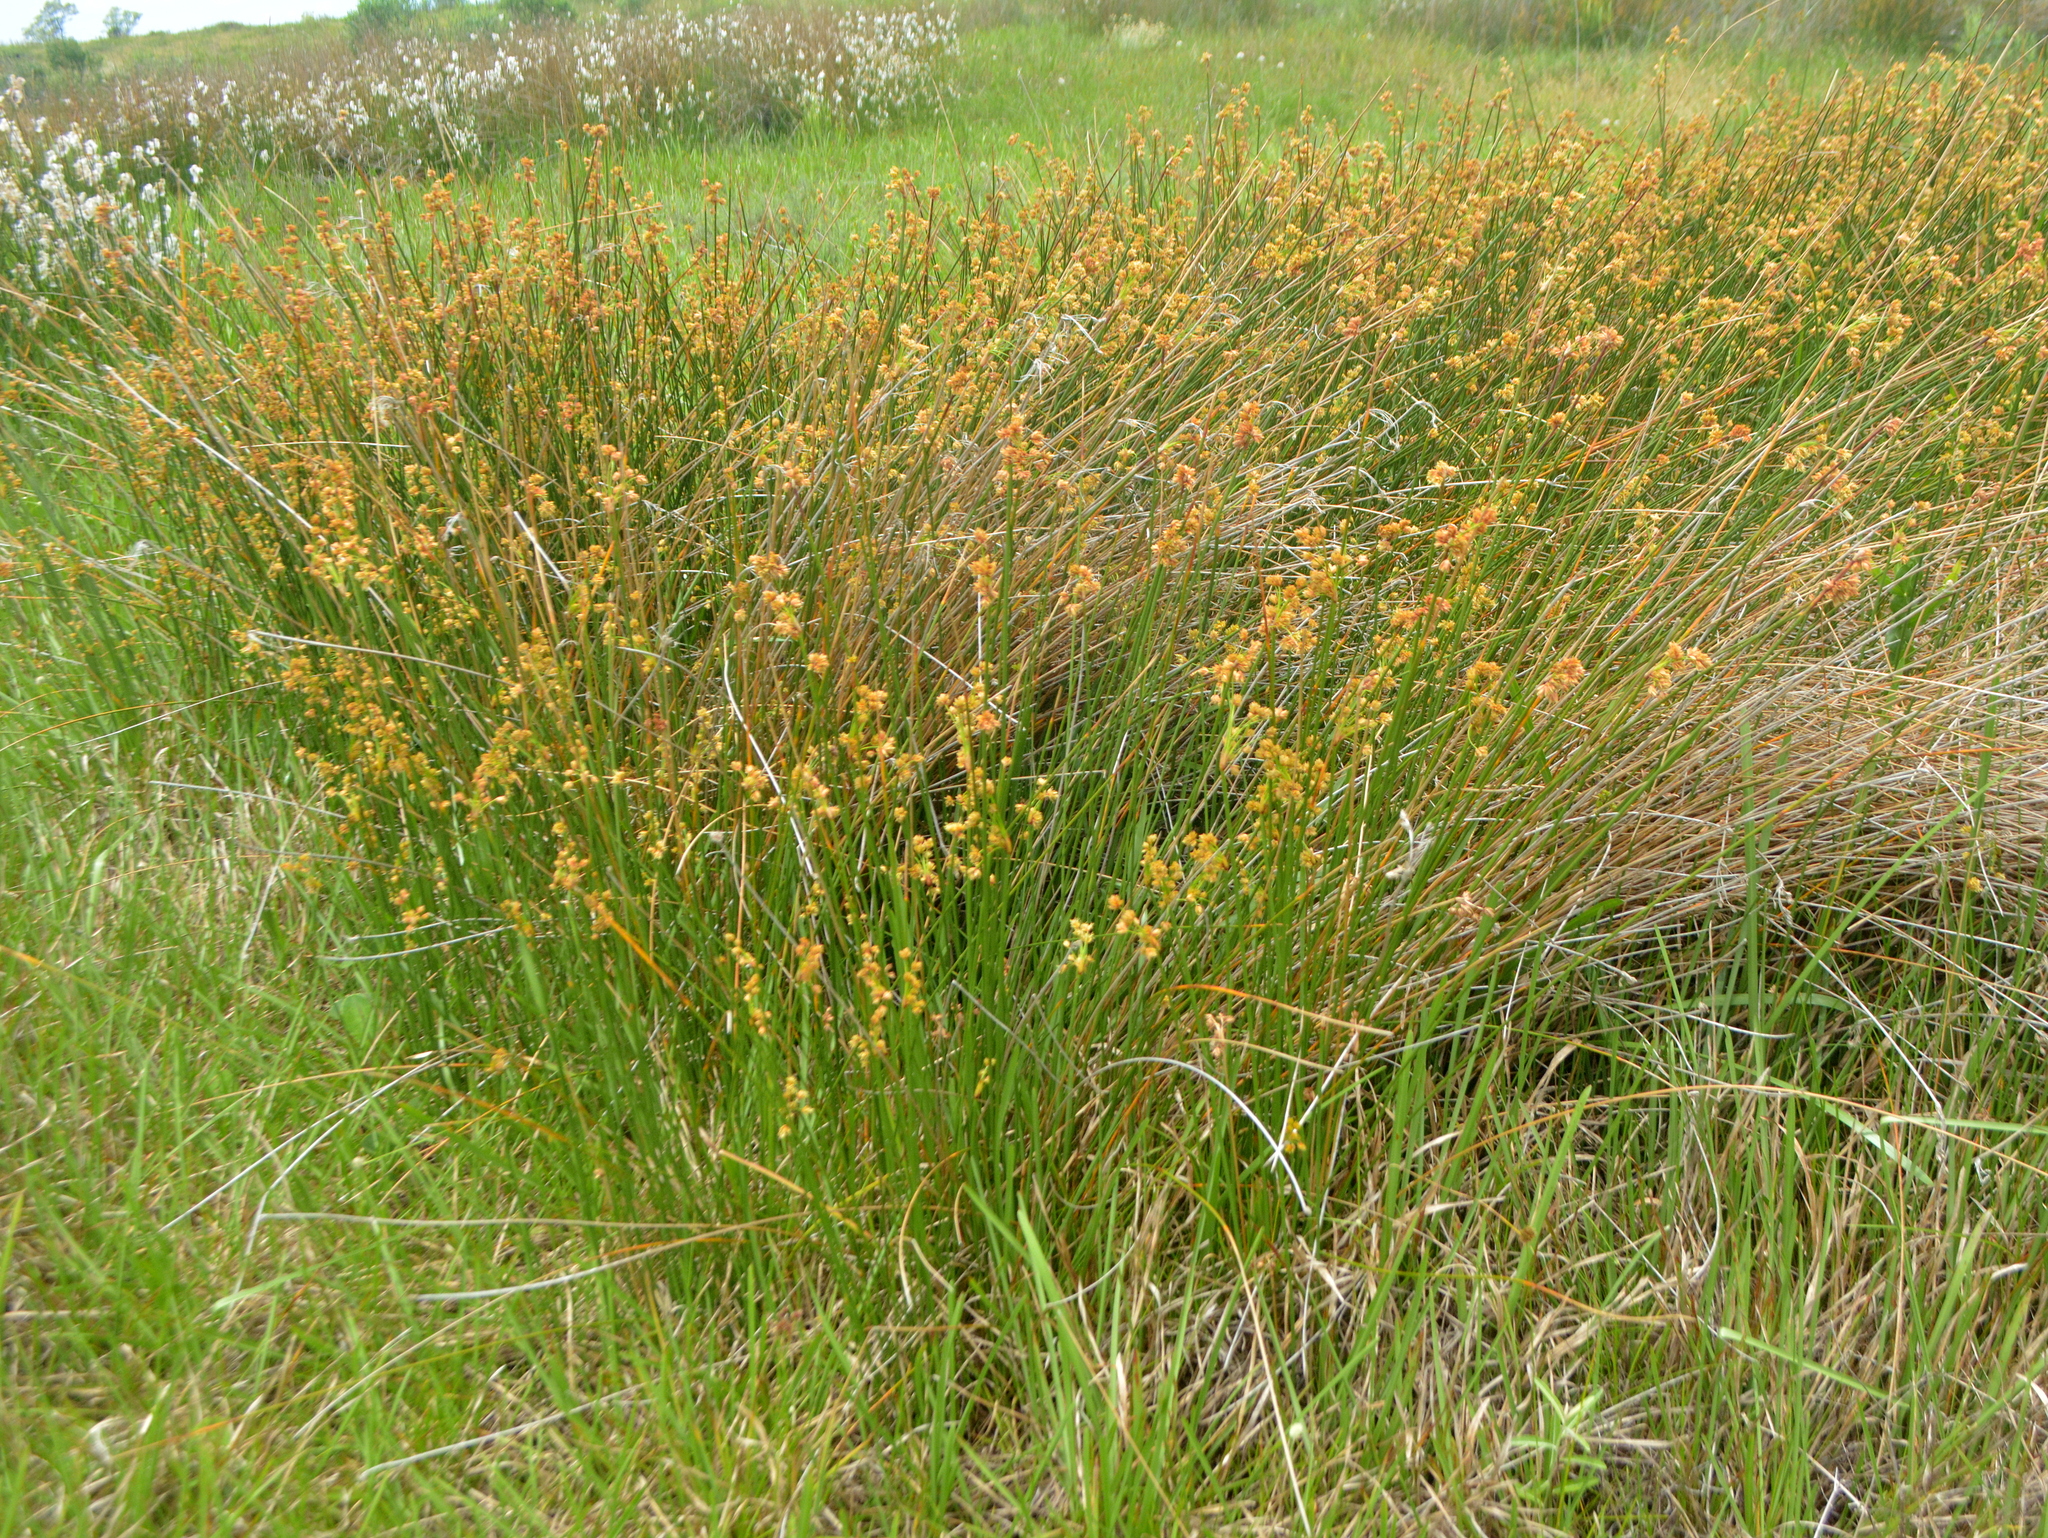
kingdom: Plantae
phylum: Tracheophyta
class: Liliopsida
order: Poales
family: Cyperaceae
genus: Cyperus
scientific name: Cyperus trigynus
